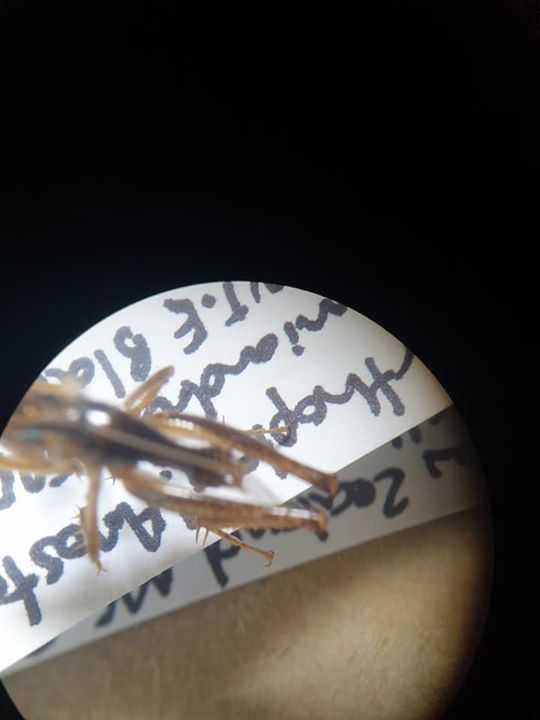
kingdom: Animalia
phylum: Arthropoda
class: Insecta
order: Orthoptera
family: Anostostomatidae
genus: Hemiandrus
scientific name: Hemiandrus maculifrons
